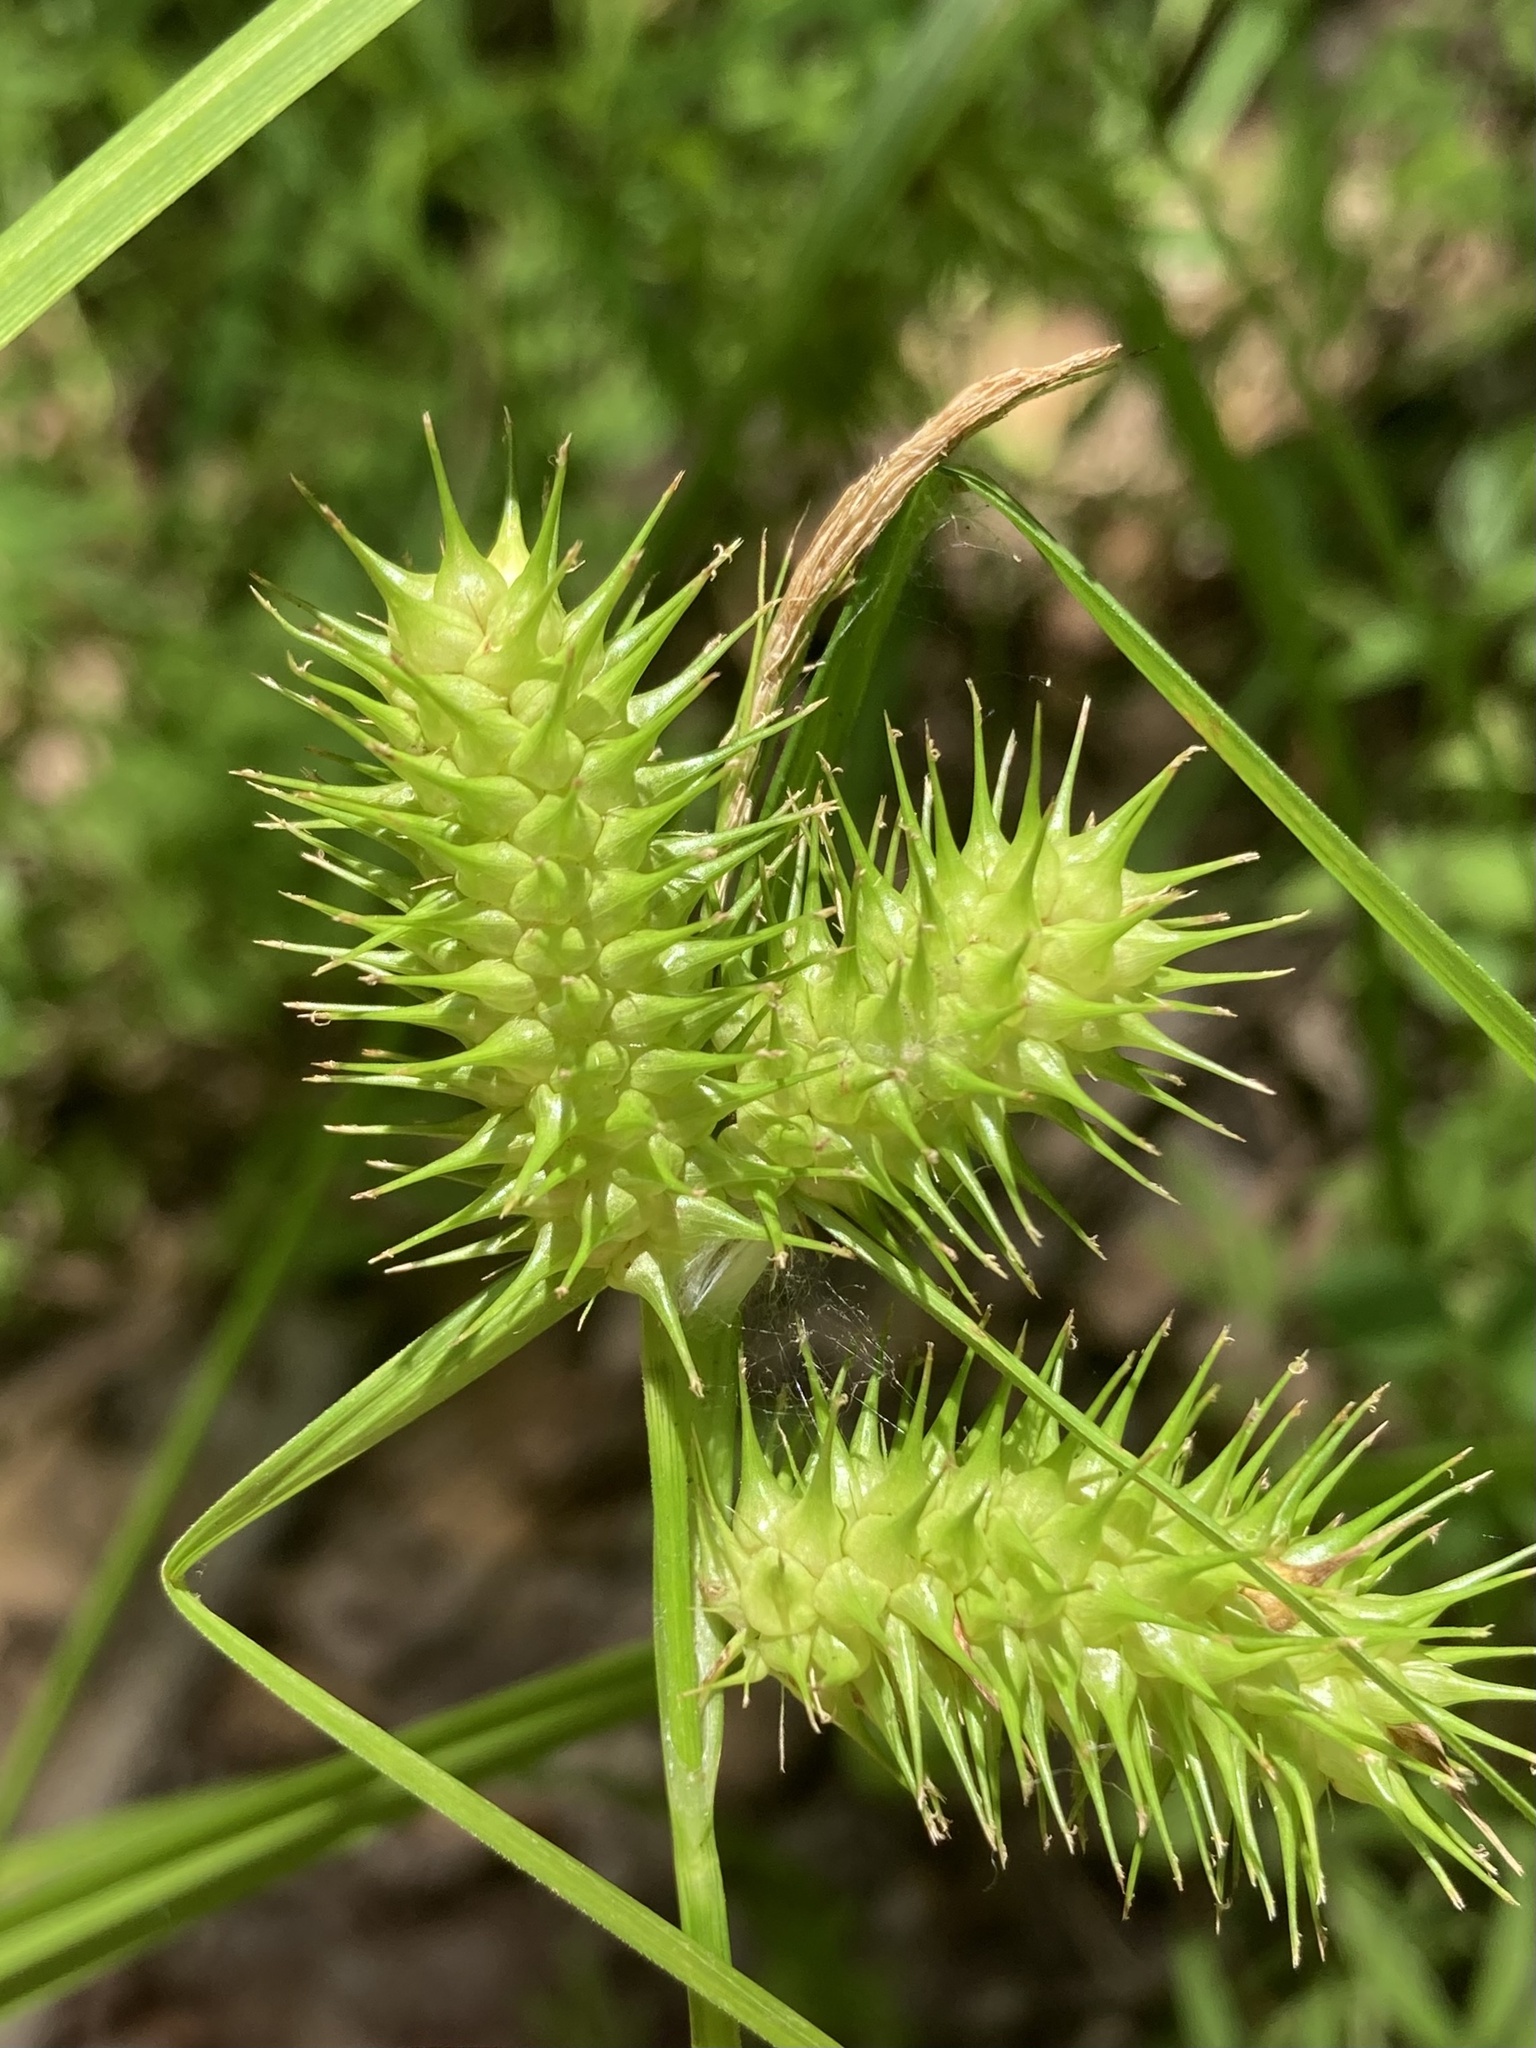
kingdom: Plantae
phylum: Tracheophyta
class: Liliopsida
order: Poales
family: Cyperaceae
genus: Carex
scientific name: Carex lurida
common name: Sallow sedge
